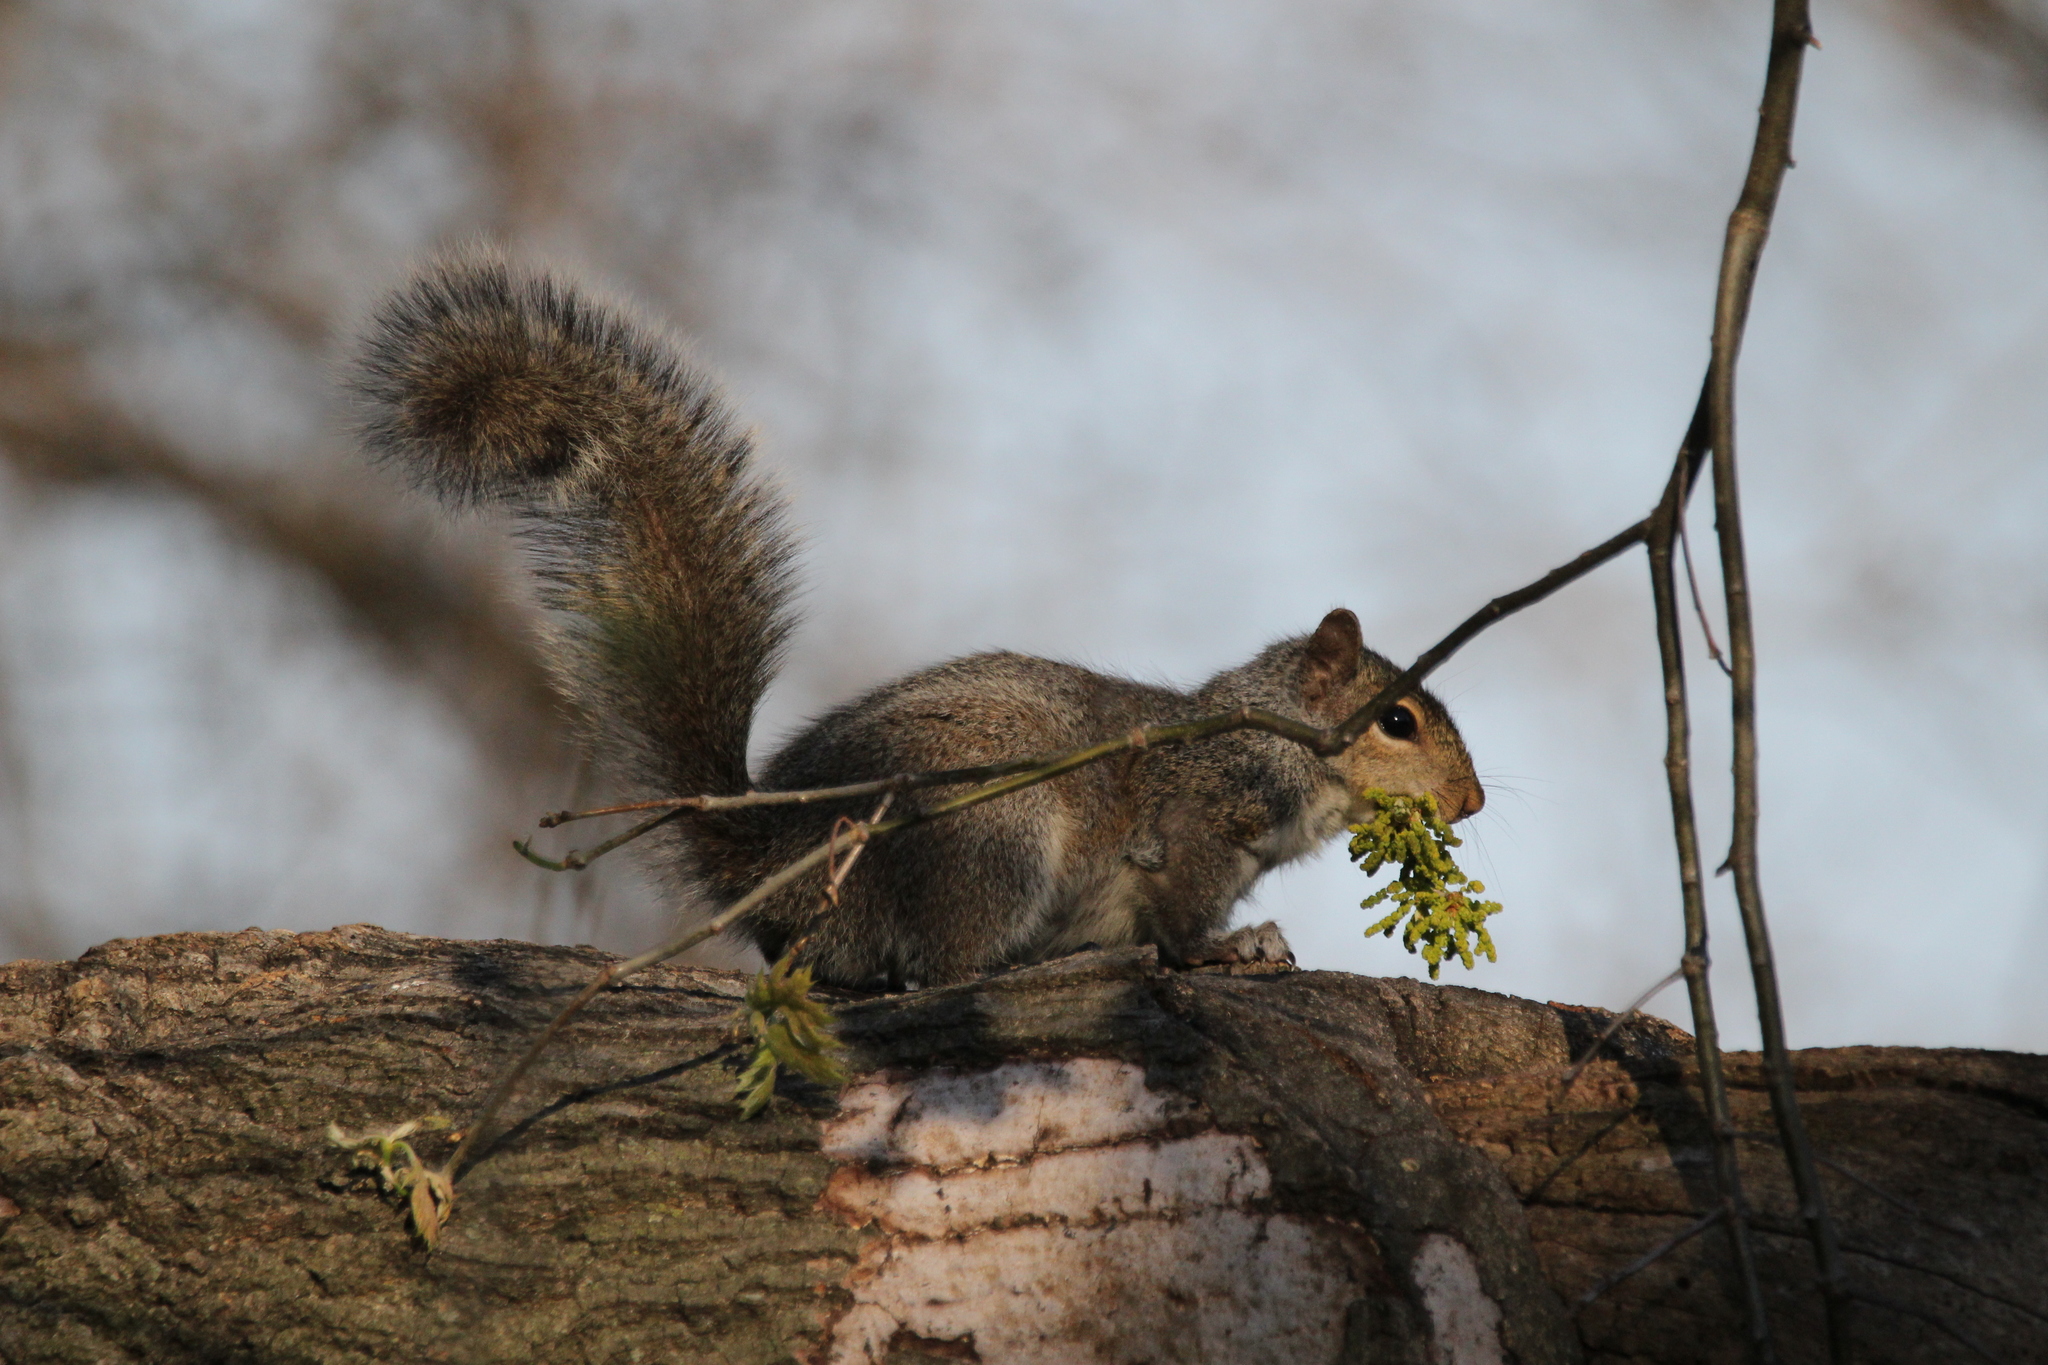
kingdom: Animalia
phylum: Chordata
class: Mammalia
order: Rodentia
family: Sciuridae
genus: Sciurus
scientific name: Sciurus carolinensis
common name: Eastern gray squirrel
